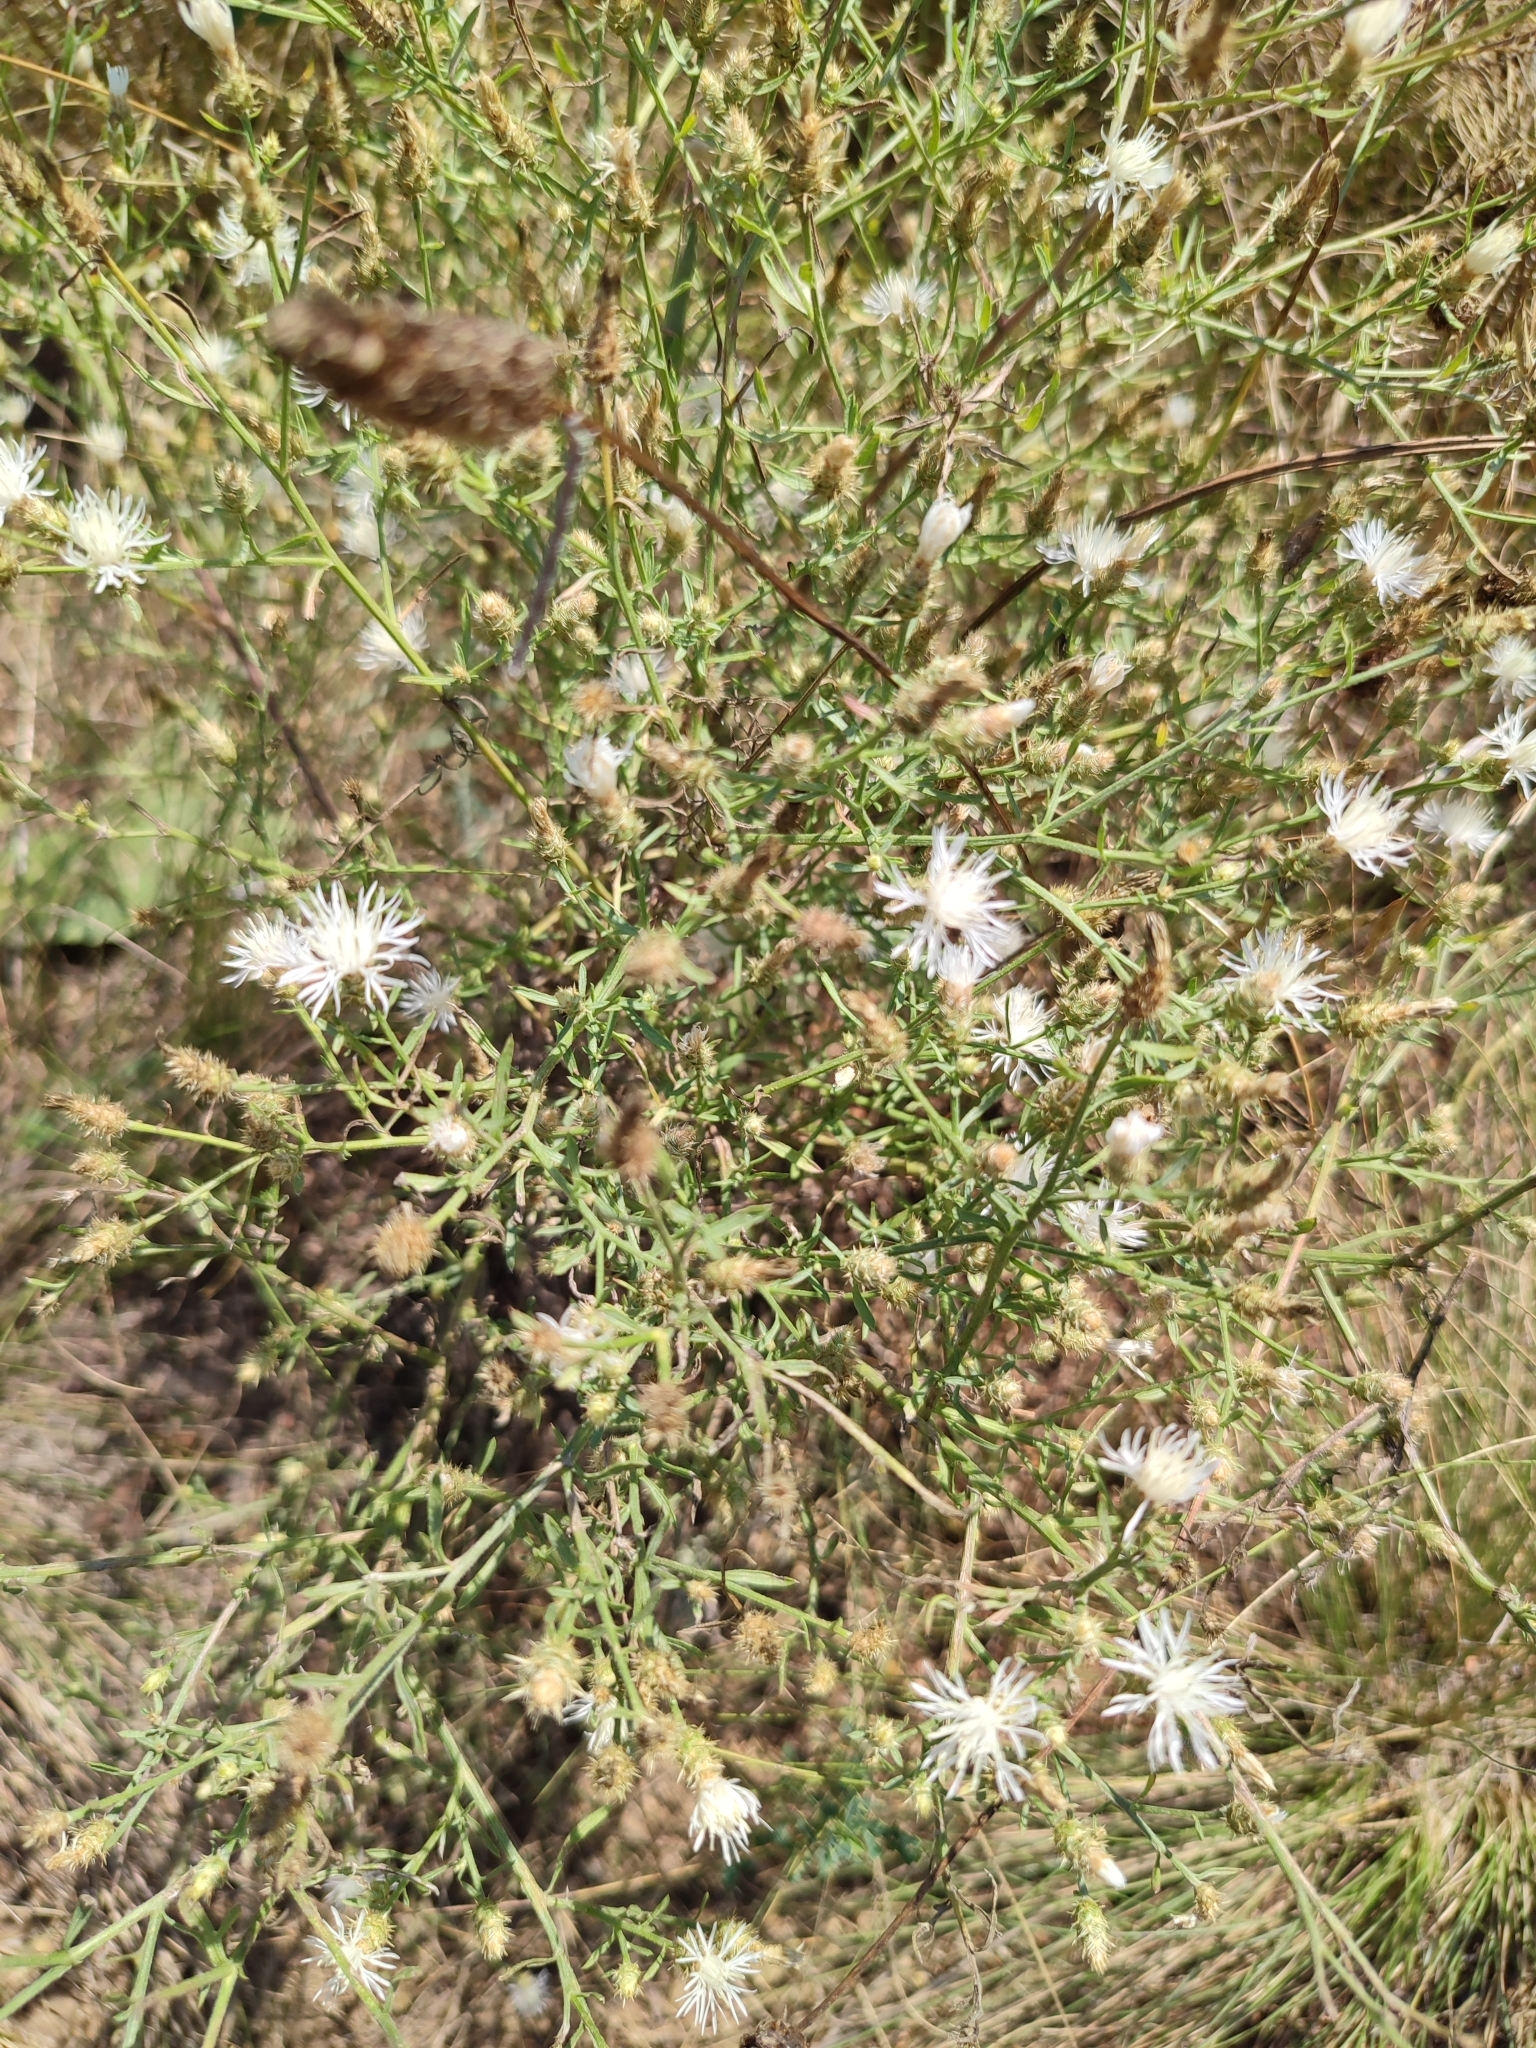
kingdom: Plantae
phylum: Tracheophyta
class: Magnoliopsida
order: Asterales
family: Asteraceae
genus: Centaurea
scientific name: Centaurea diffusa
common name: Diffuse knapweed
